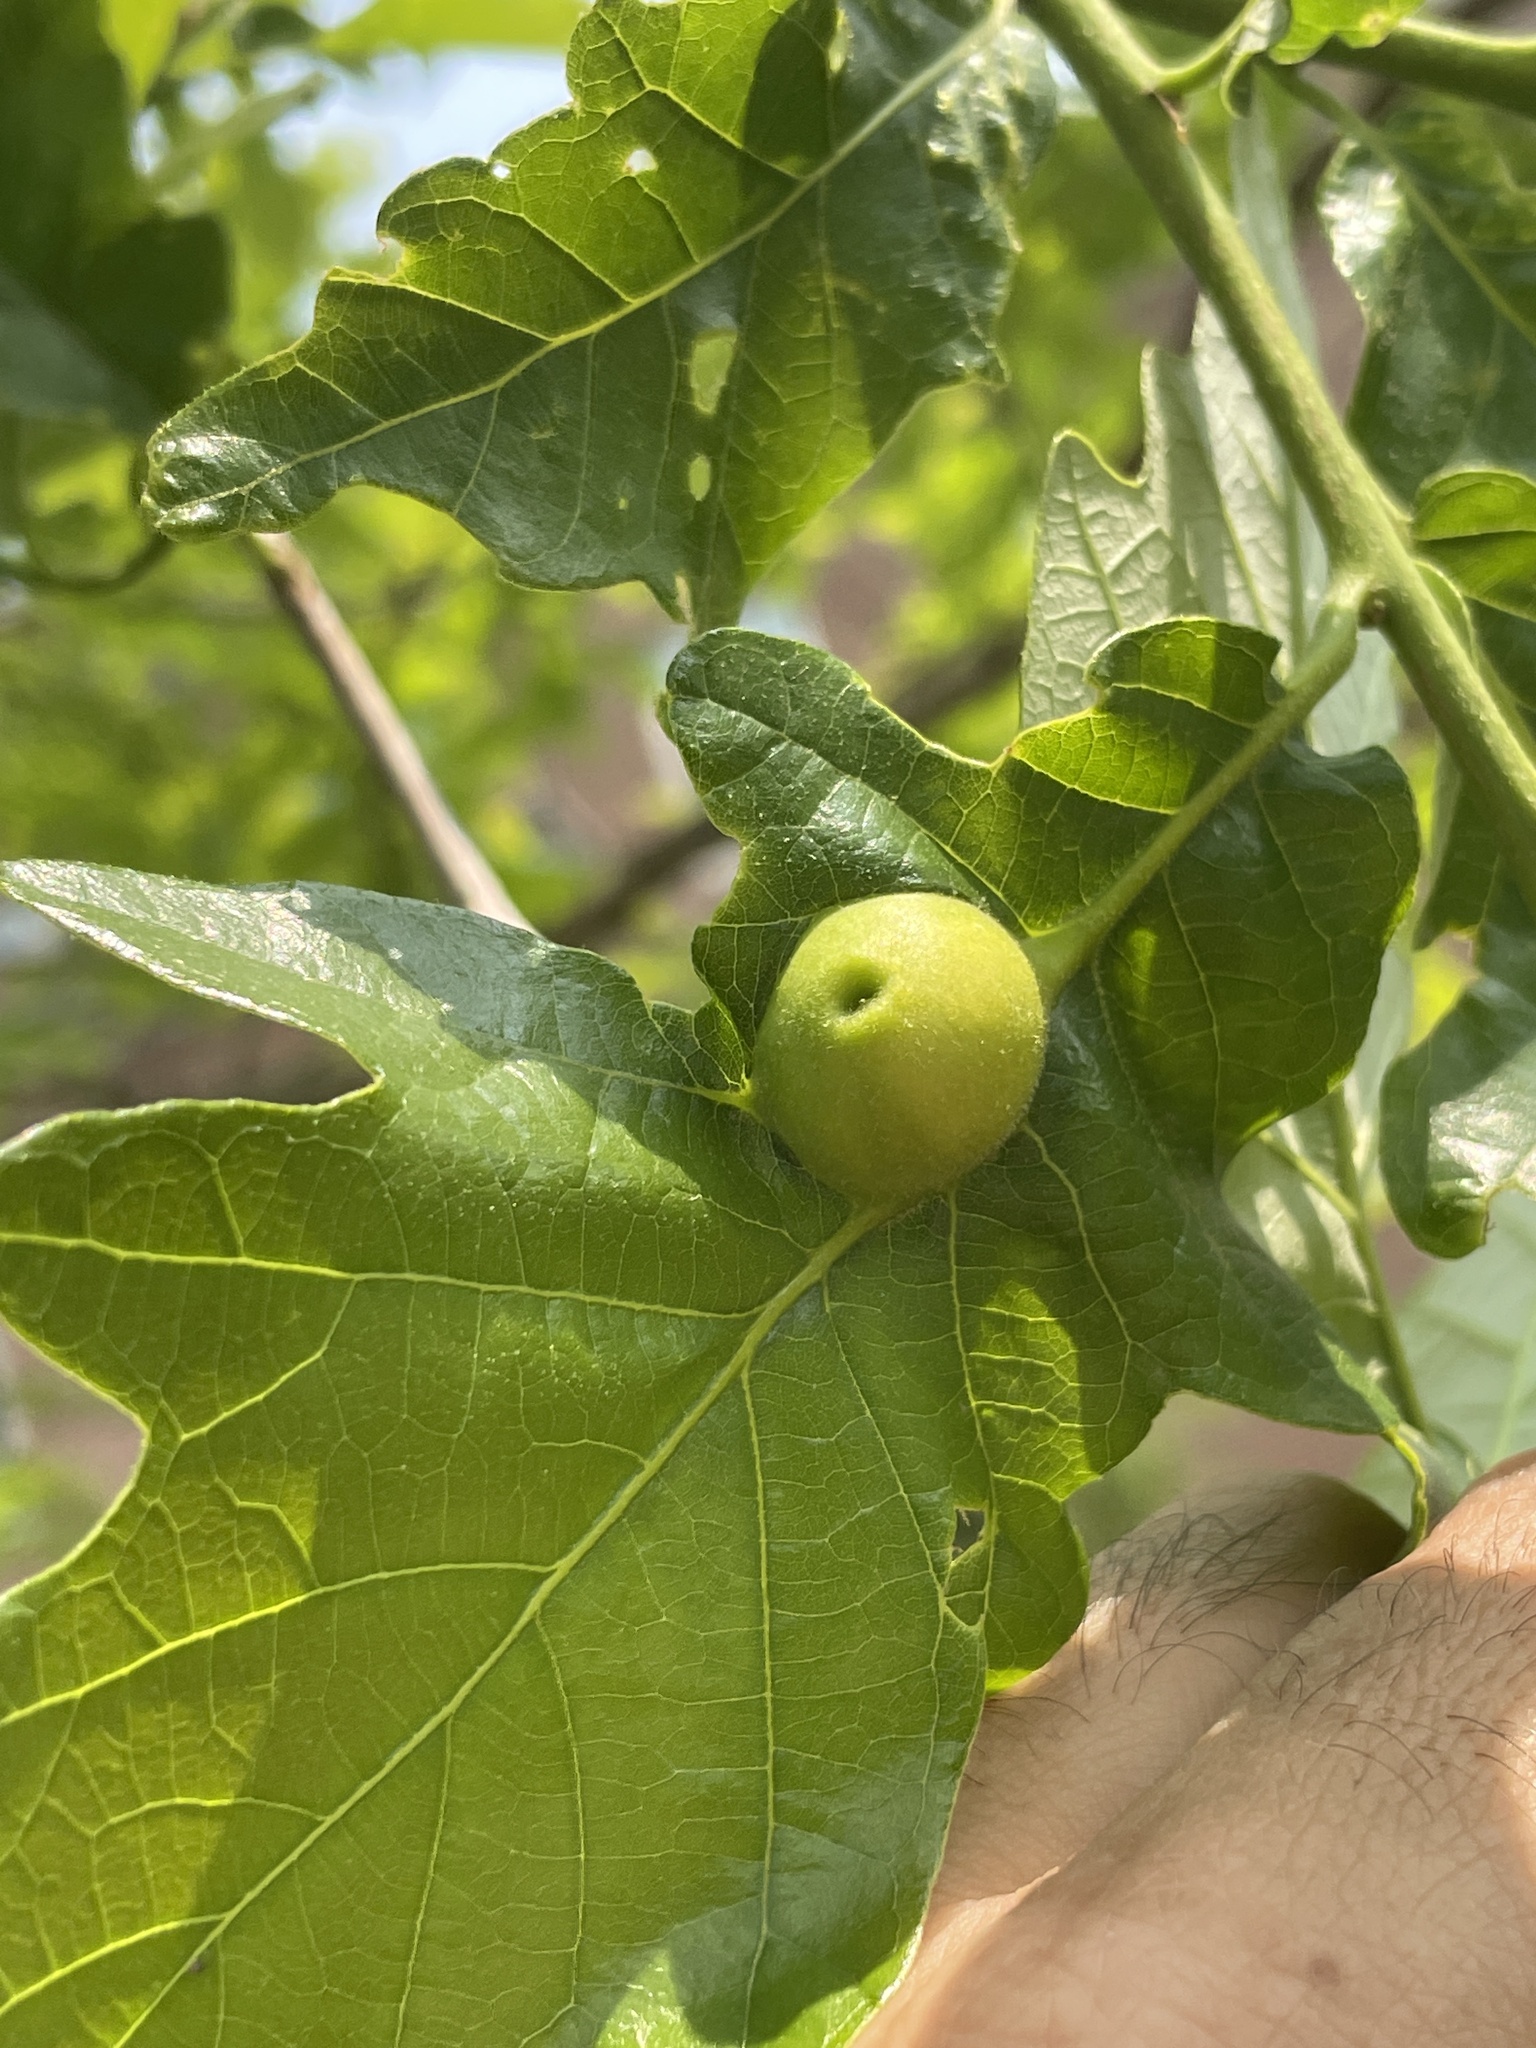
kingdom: Animalia
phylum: Arthropoda
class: Insecta
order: Hymenoptera
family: Cynipidae
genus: Andricus
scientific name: Andricus
